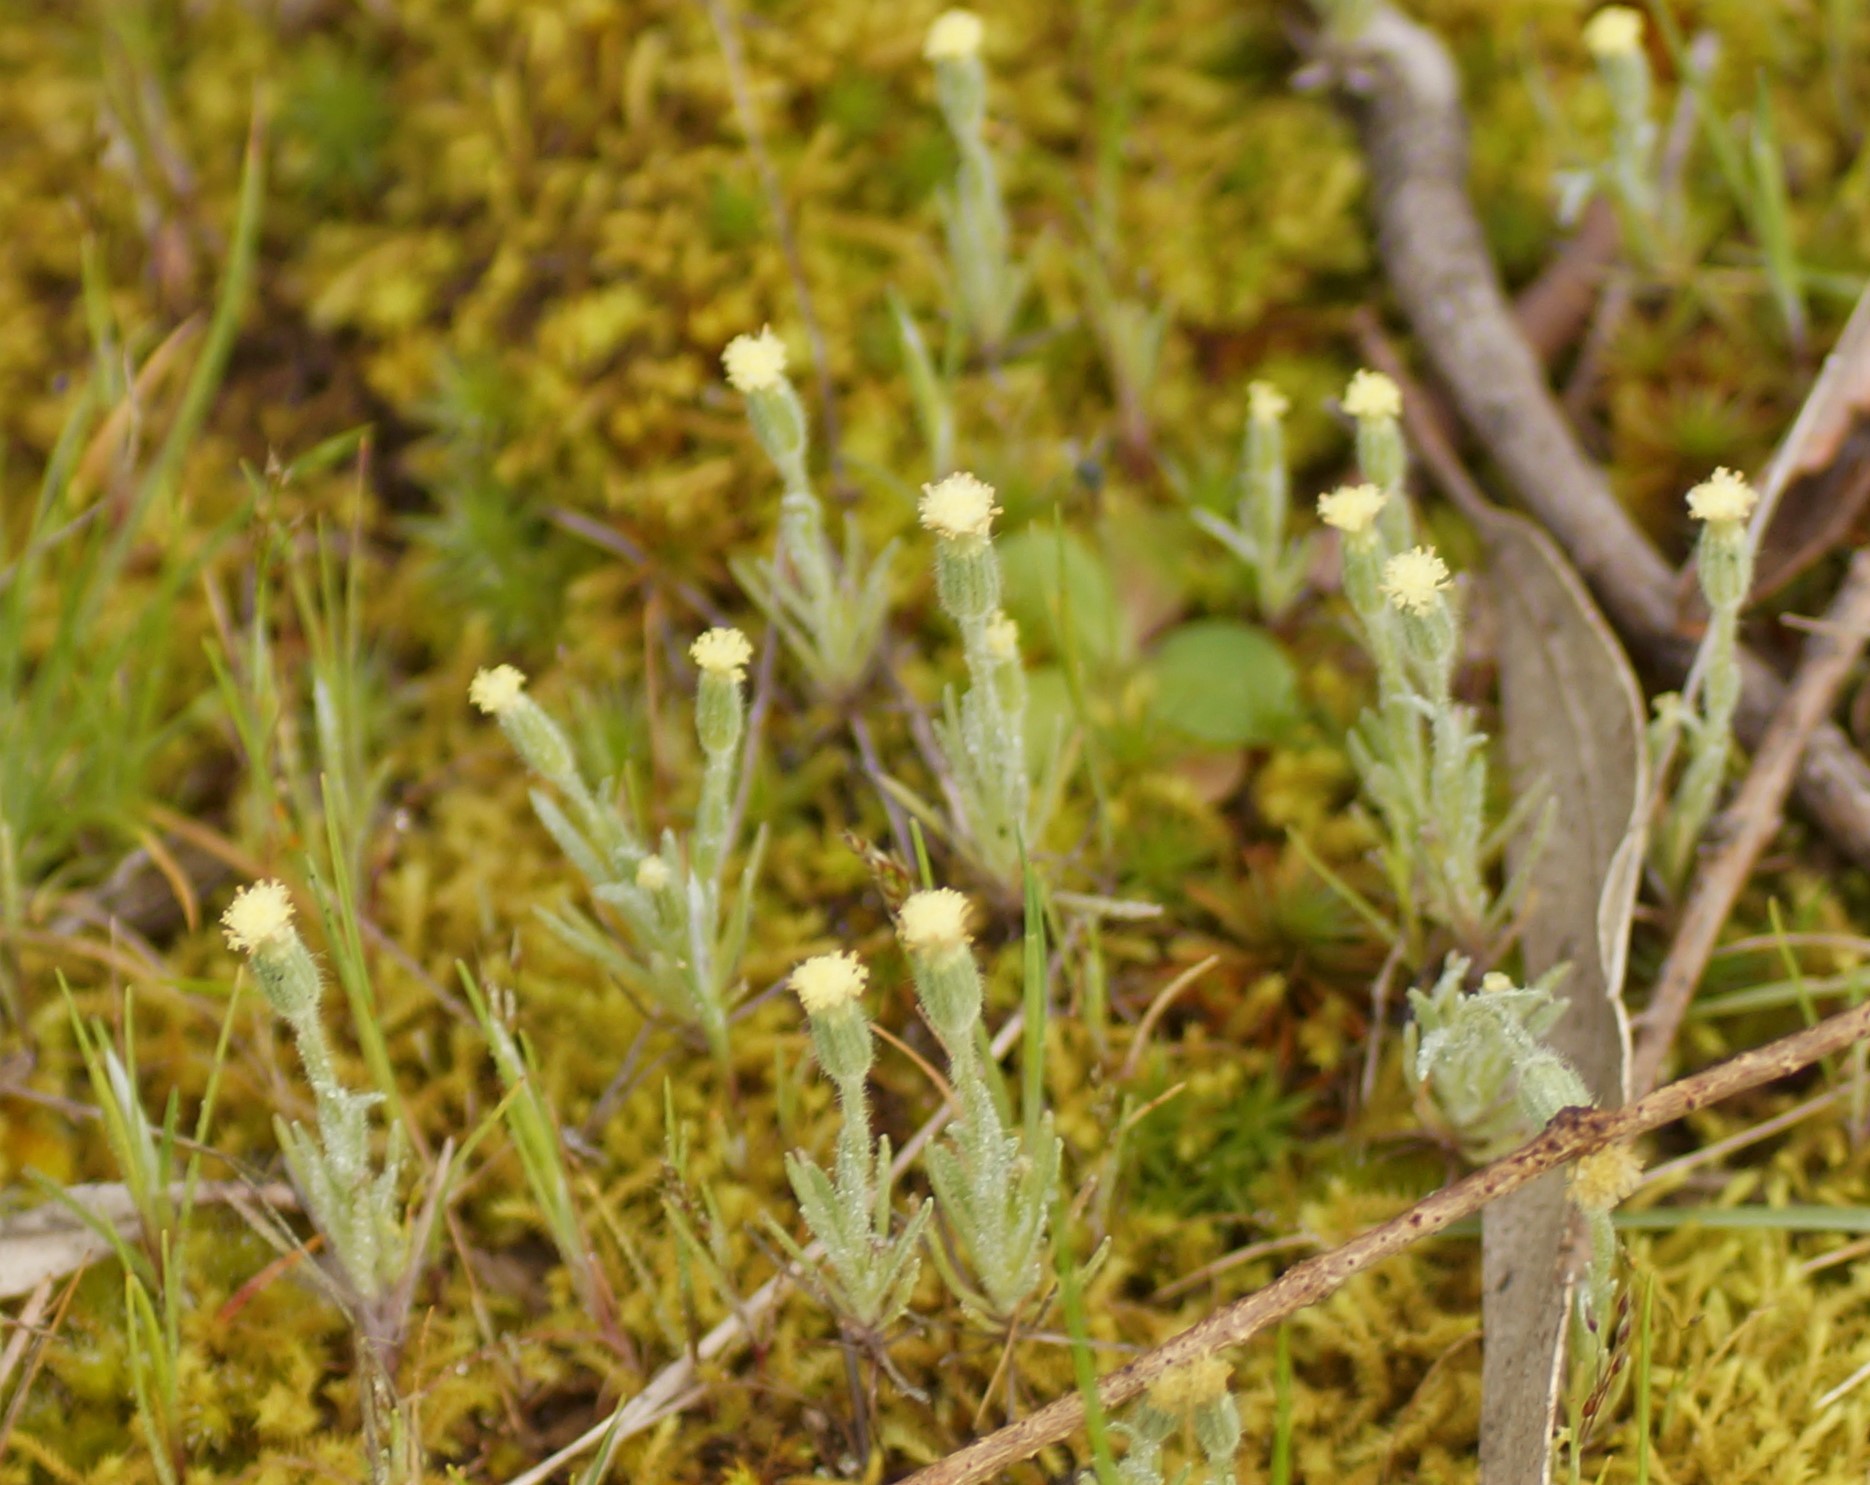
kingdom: Plantae
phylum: Tracheophyta
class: Magnoliopsida
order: Asterales
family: Asteraceae
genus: Millotia
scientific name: Millotia tenuifolia
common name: Soft millotia
